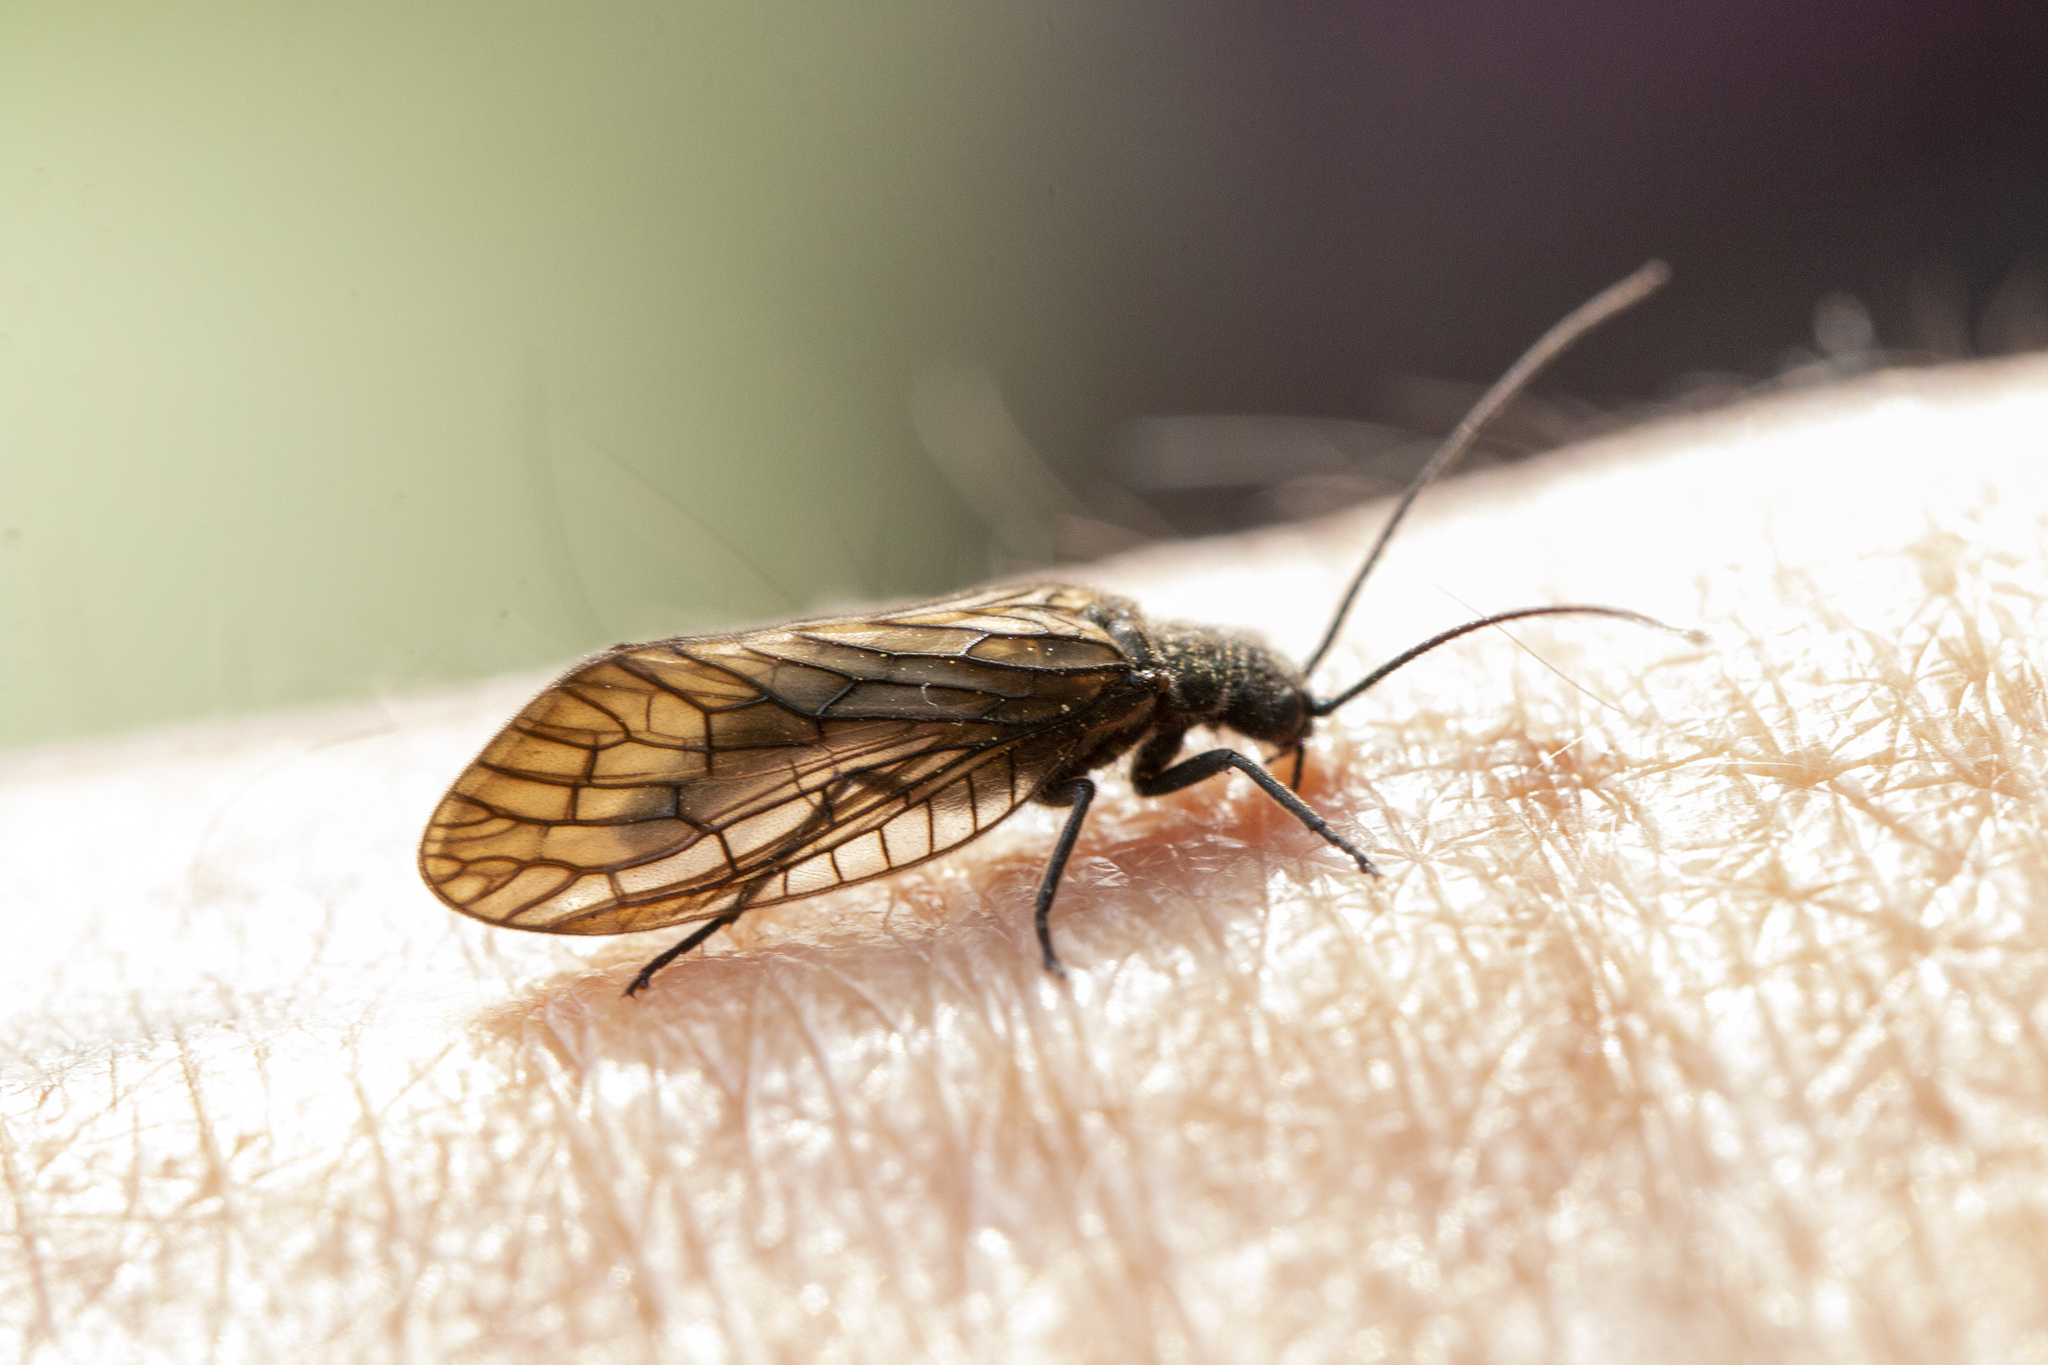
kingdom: Animalia
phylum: Arthropoda
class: Insecta
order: Megaloptera
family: Sialidae
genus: Sialis
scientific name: Sialis
